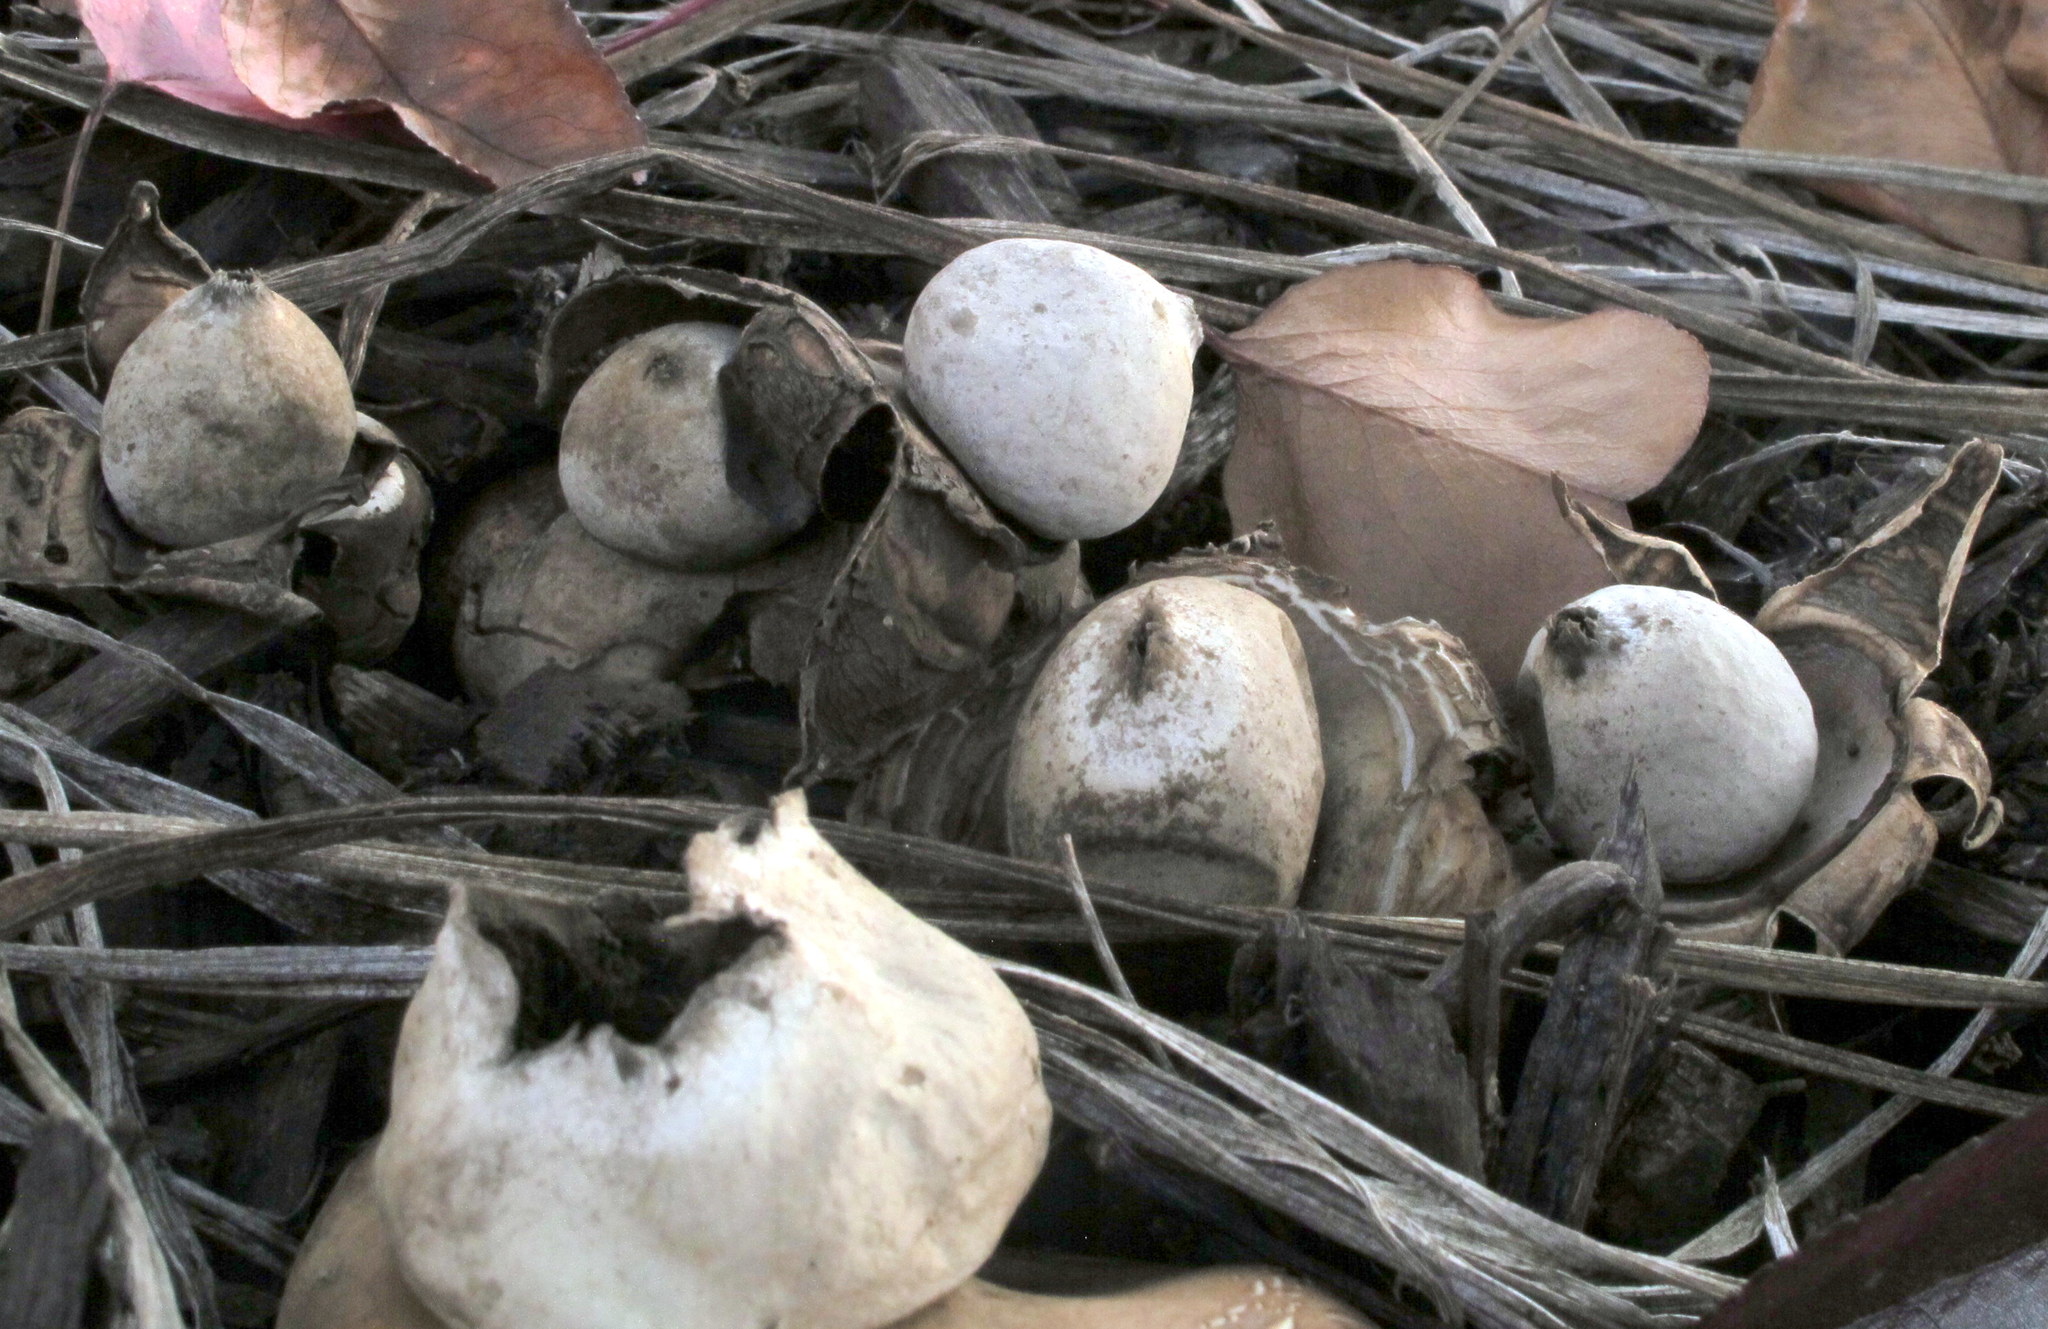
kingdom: Fungi
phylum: Basidiomycota
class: Agaricomycetes
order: Geastrales
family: Geastraceae
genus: Geastrum
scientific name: Geastrum saccatum
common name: Rounded earthstar
